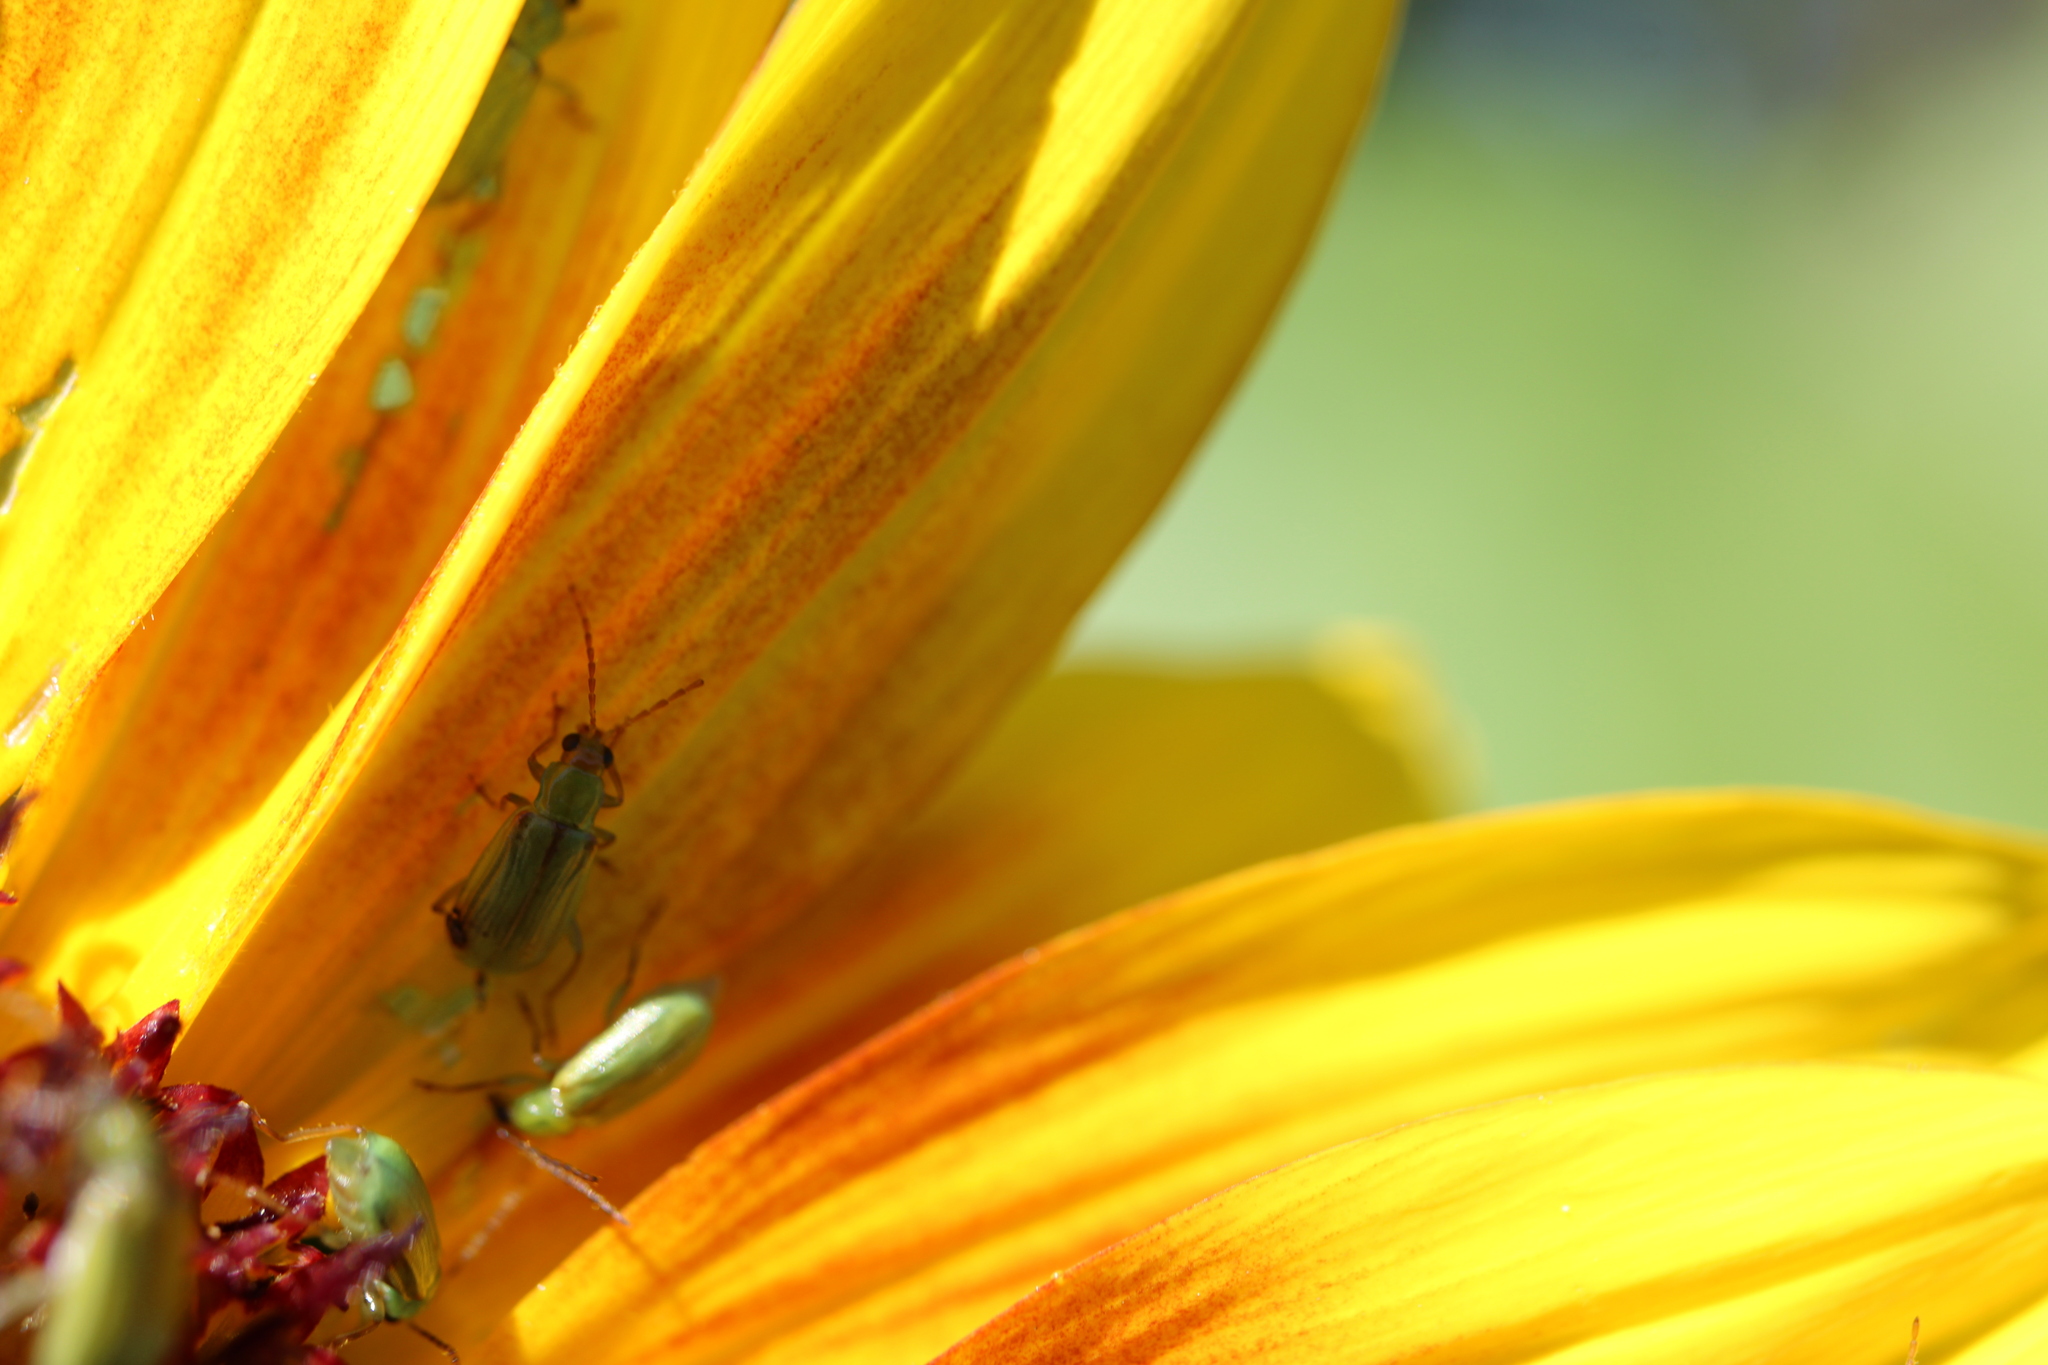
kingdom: Animalia
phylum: Arthropoda
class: Insecta
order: Coleoptera
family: Chrysomelidae
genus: Diabrotica
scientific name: Diabrotica barberi
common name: Northern corn rootworm
